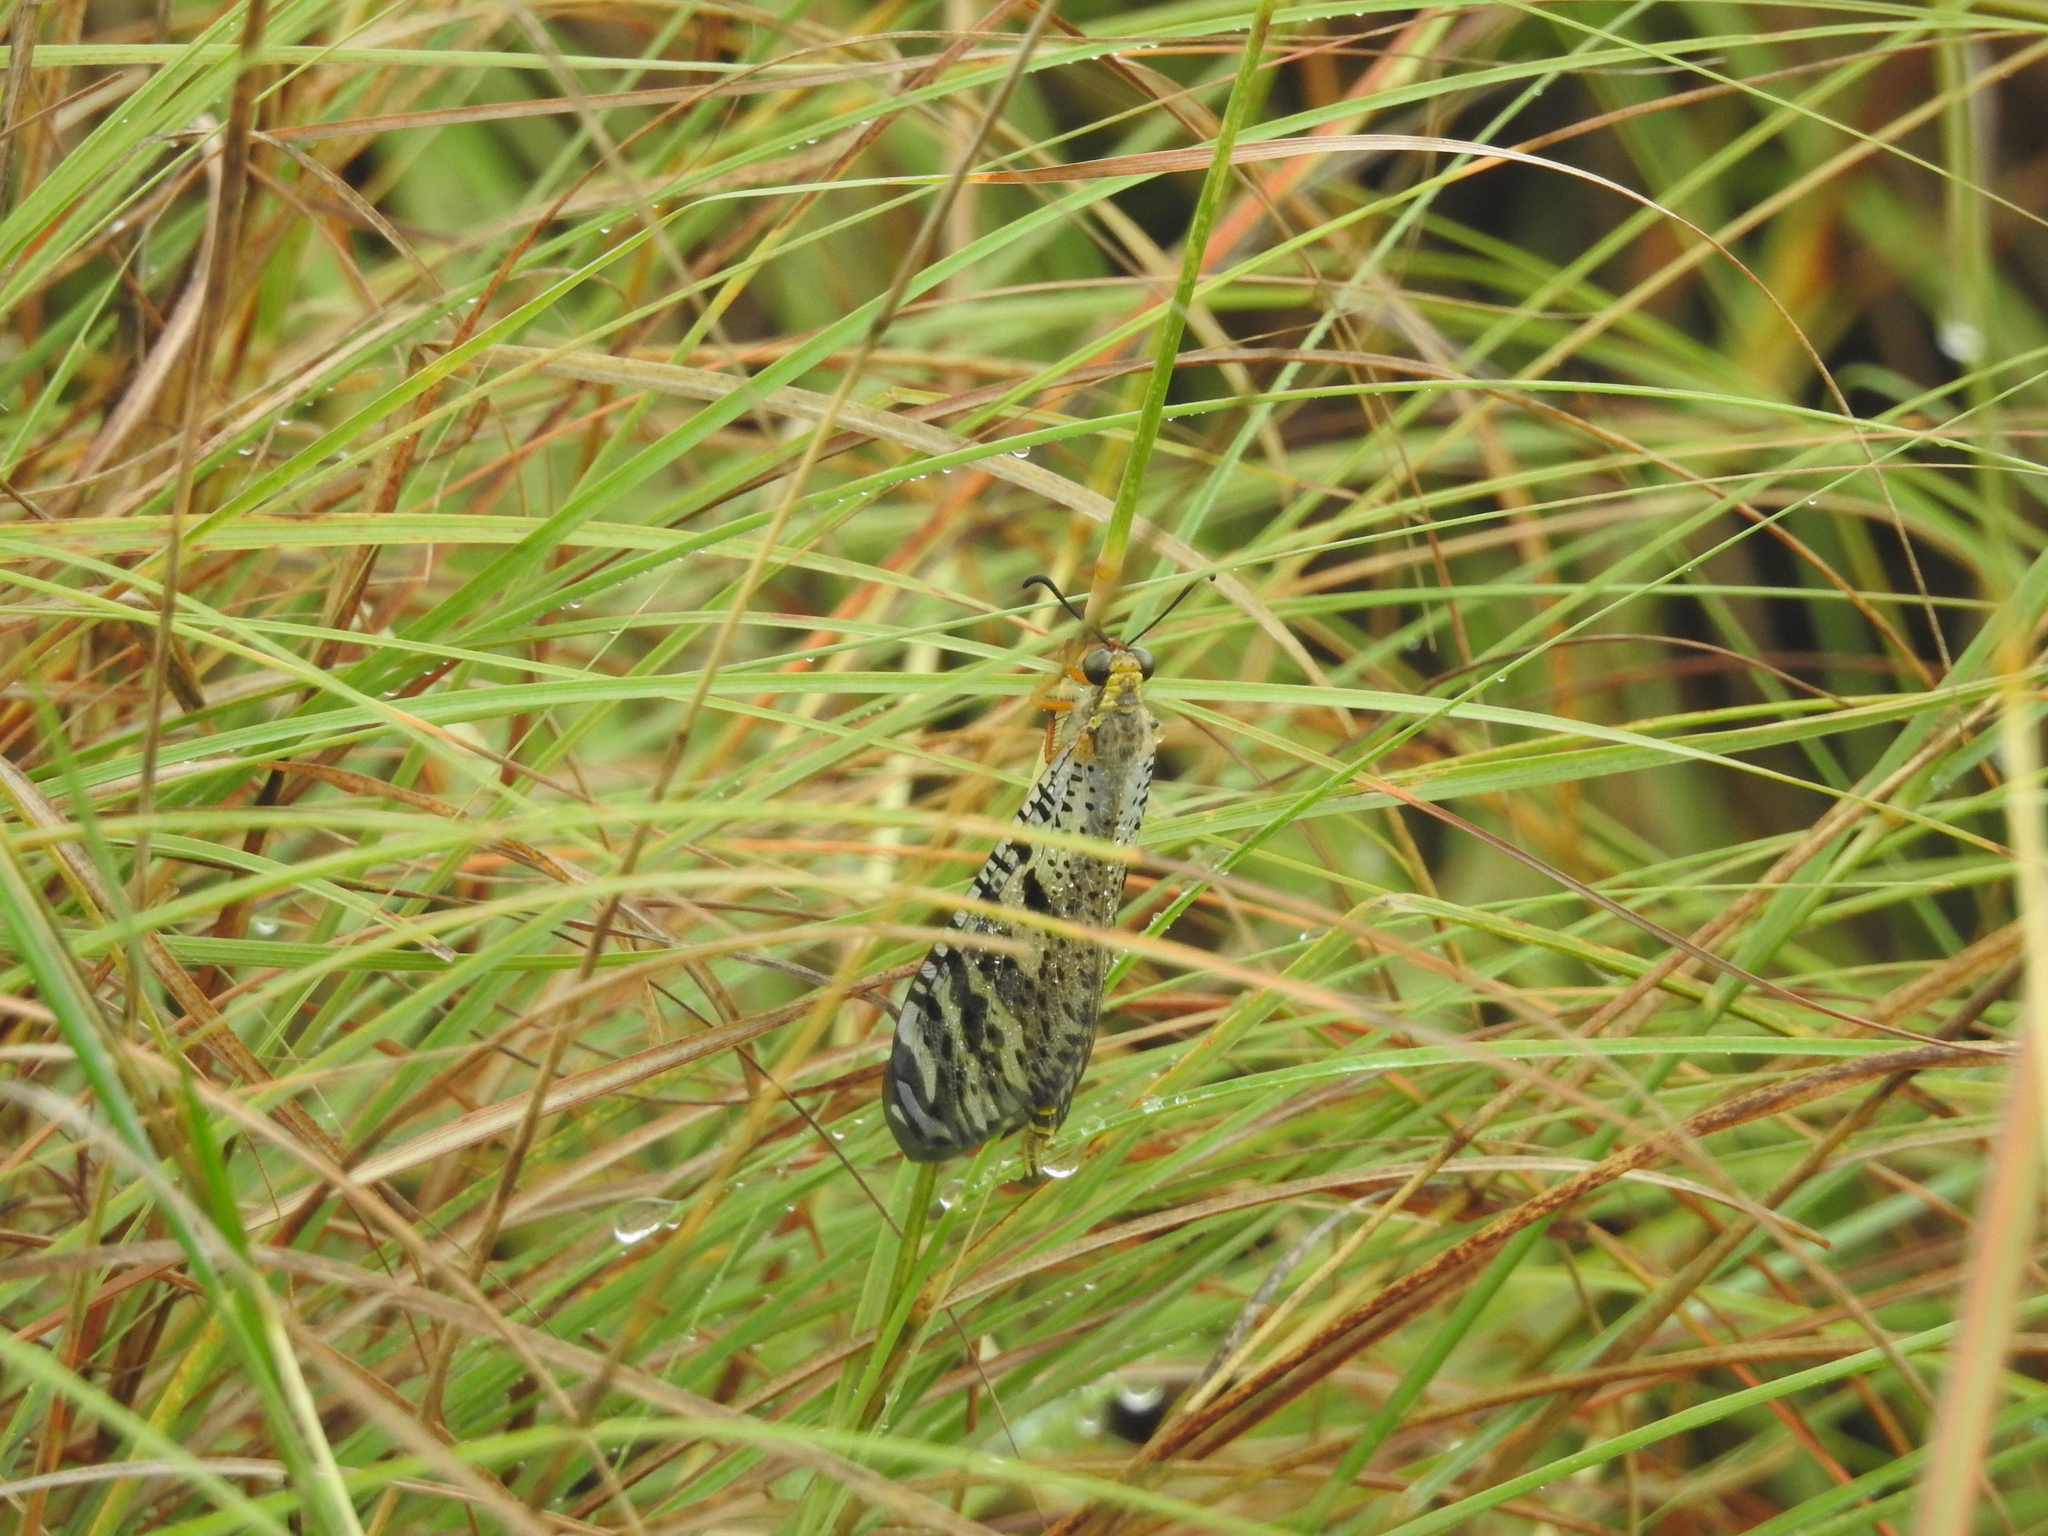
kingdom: Animalia
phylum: Arthropoda
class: Insecta
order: Neuroptera
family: Myrmeleontidae
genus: Indopalpares
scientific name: Indopalpares pardus
